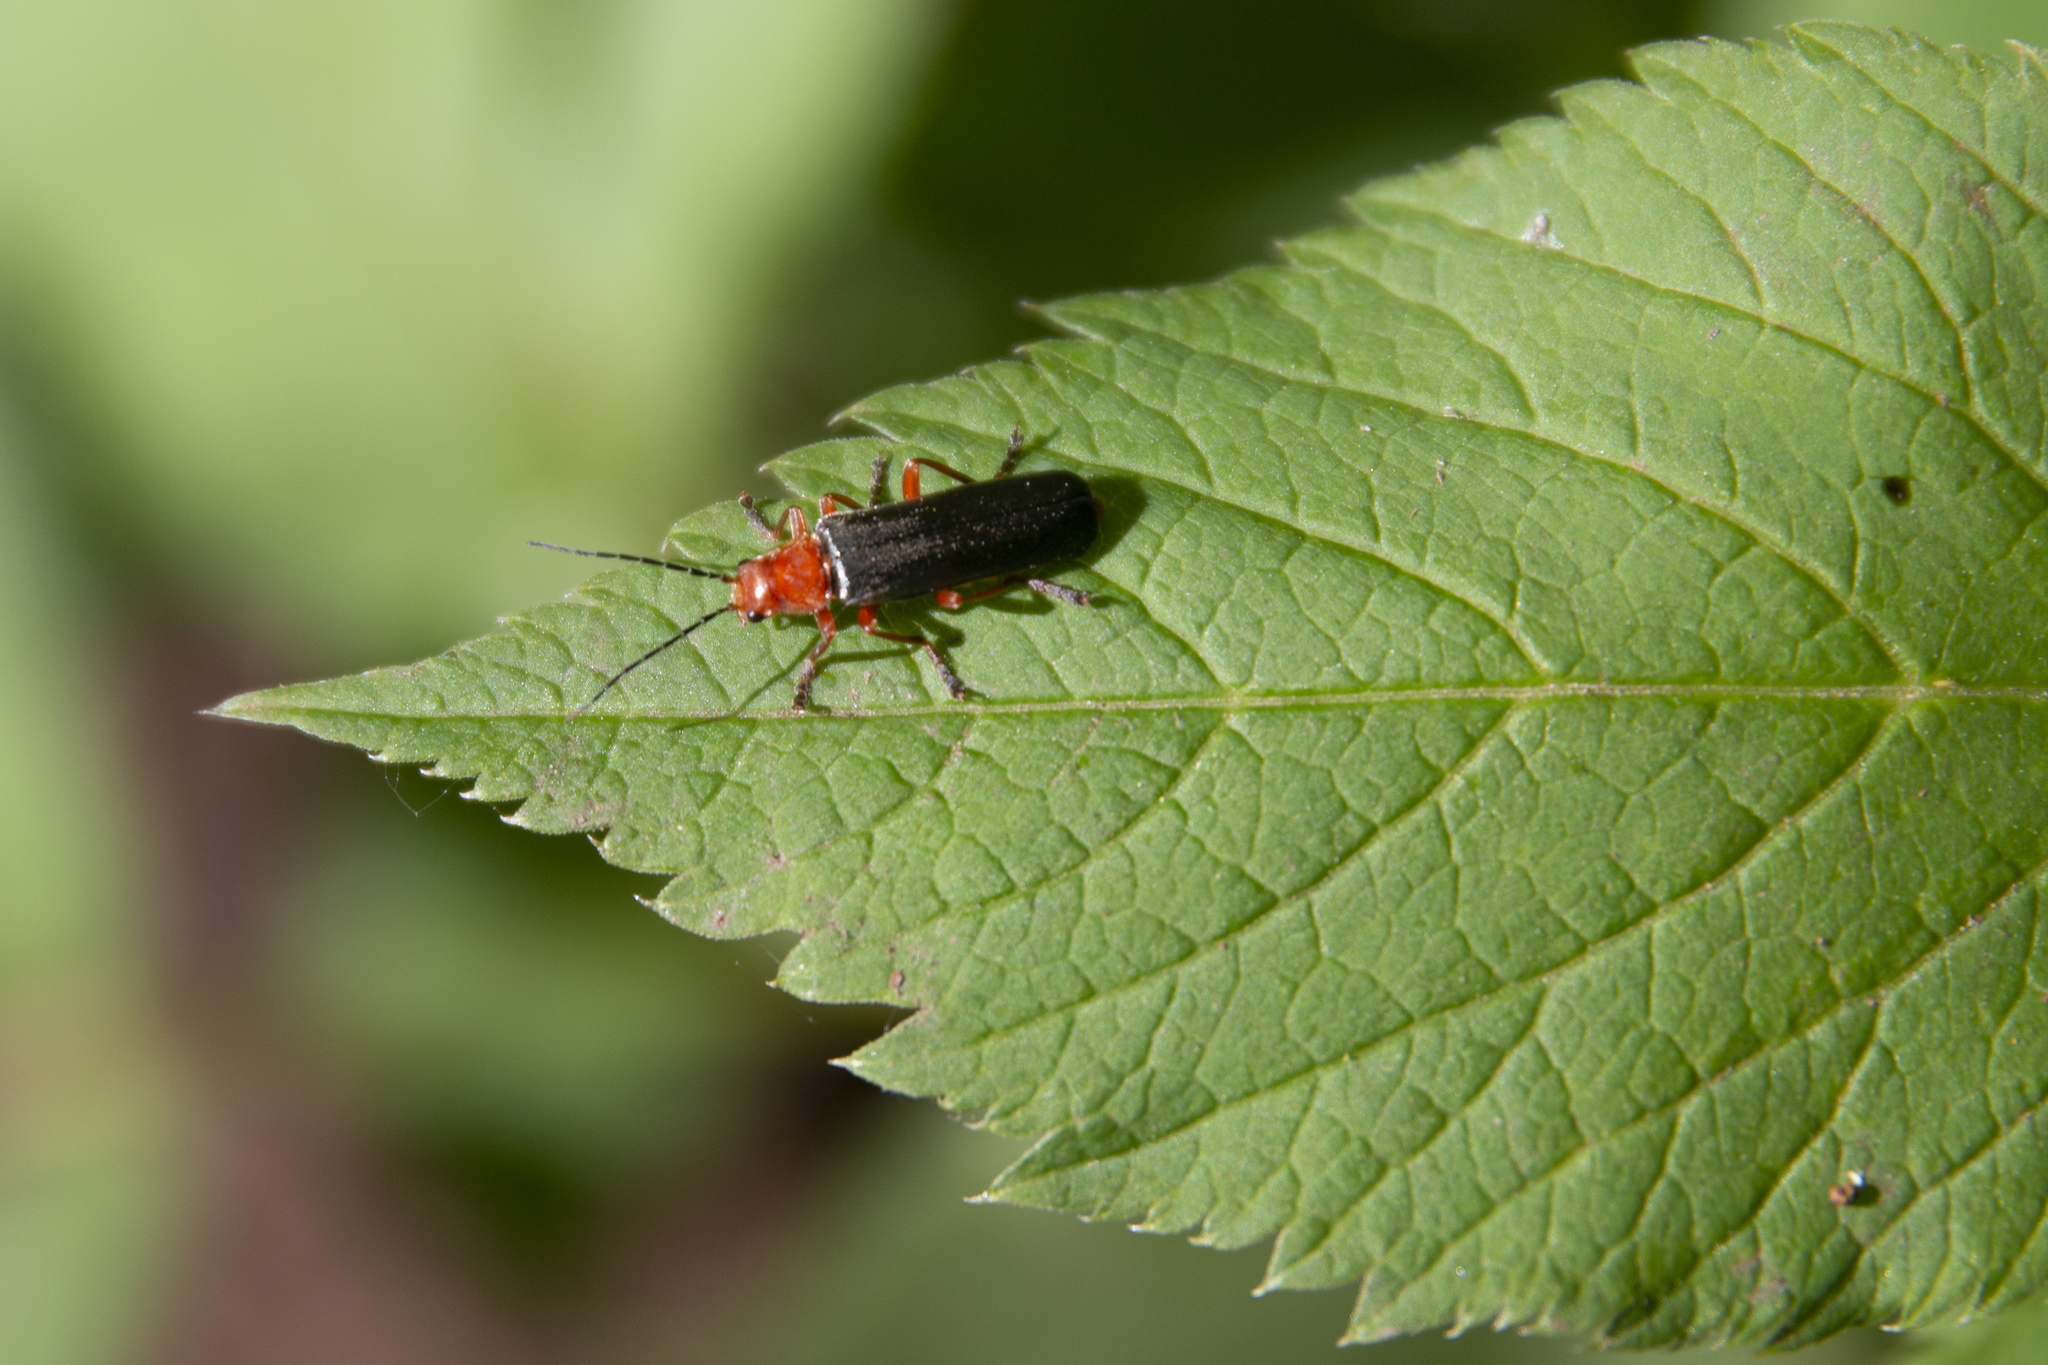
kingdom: Animalia
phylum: Arthropoda
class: Insecta
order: Coleoptera
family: Cantharidae
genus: Ancistronycha
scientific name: Ancistronycha tigurina
